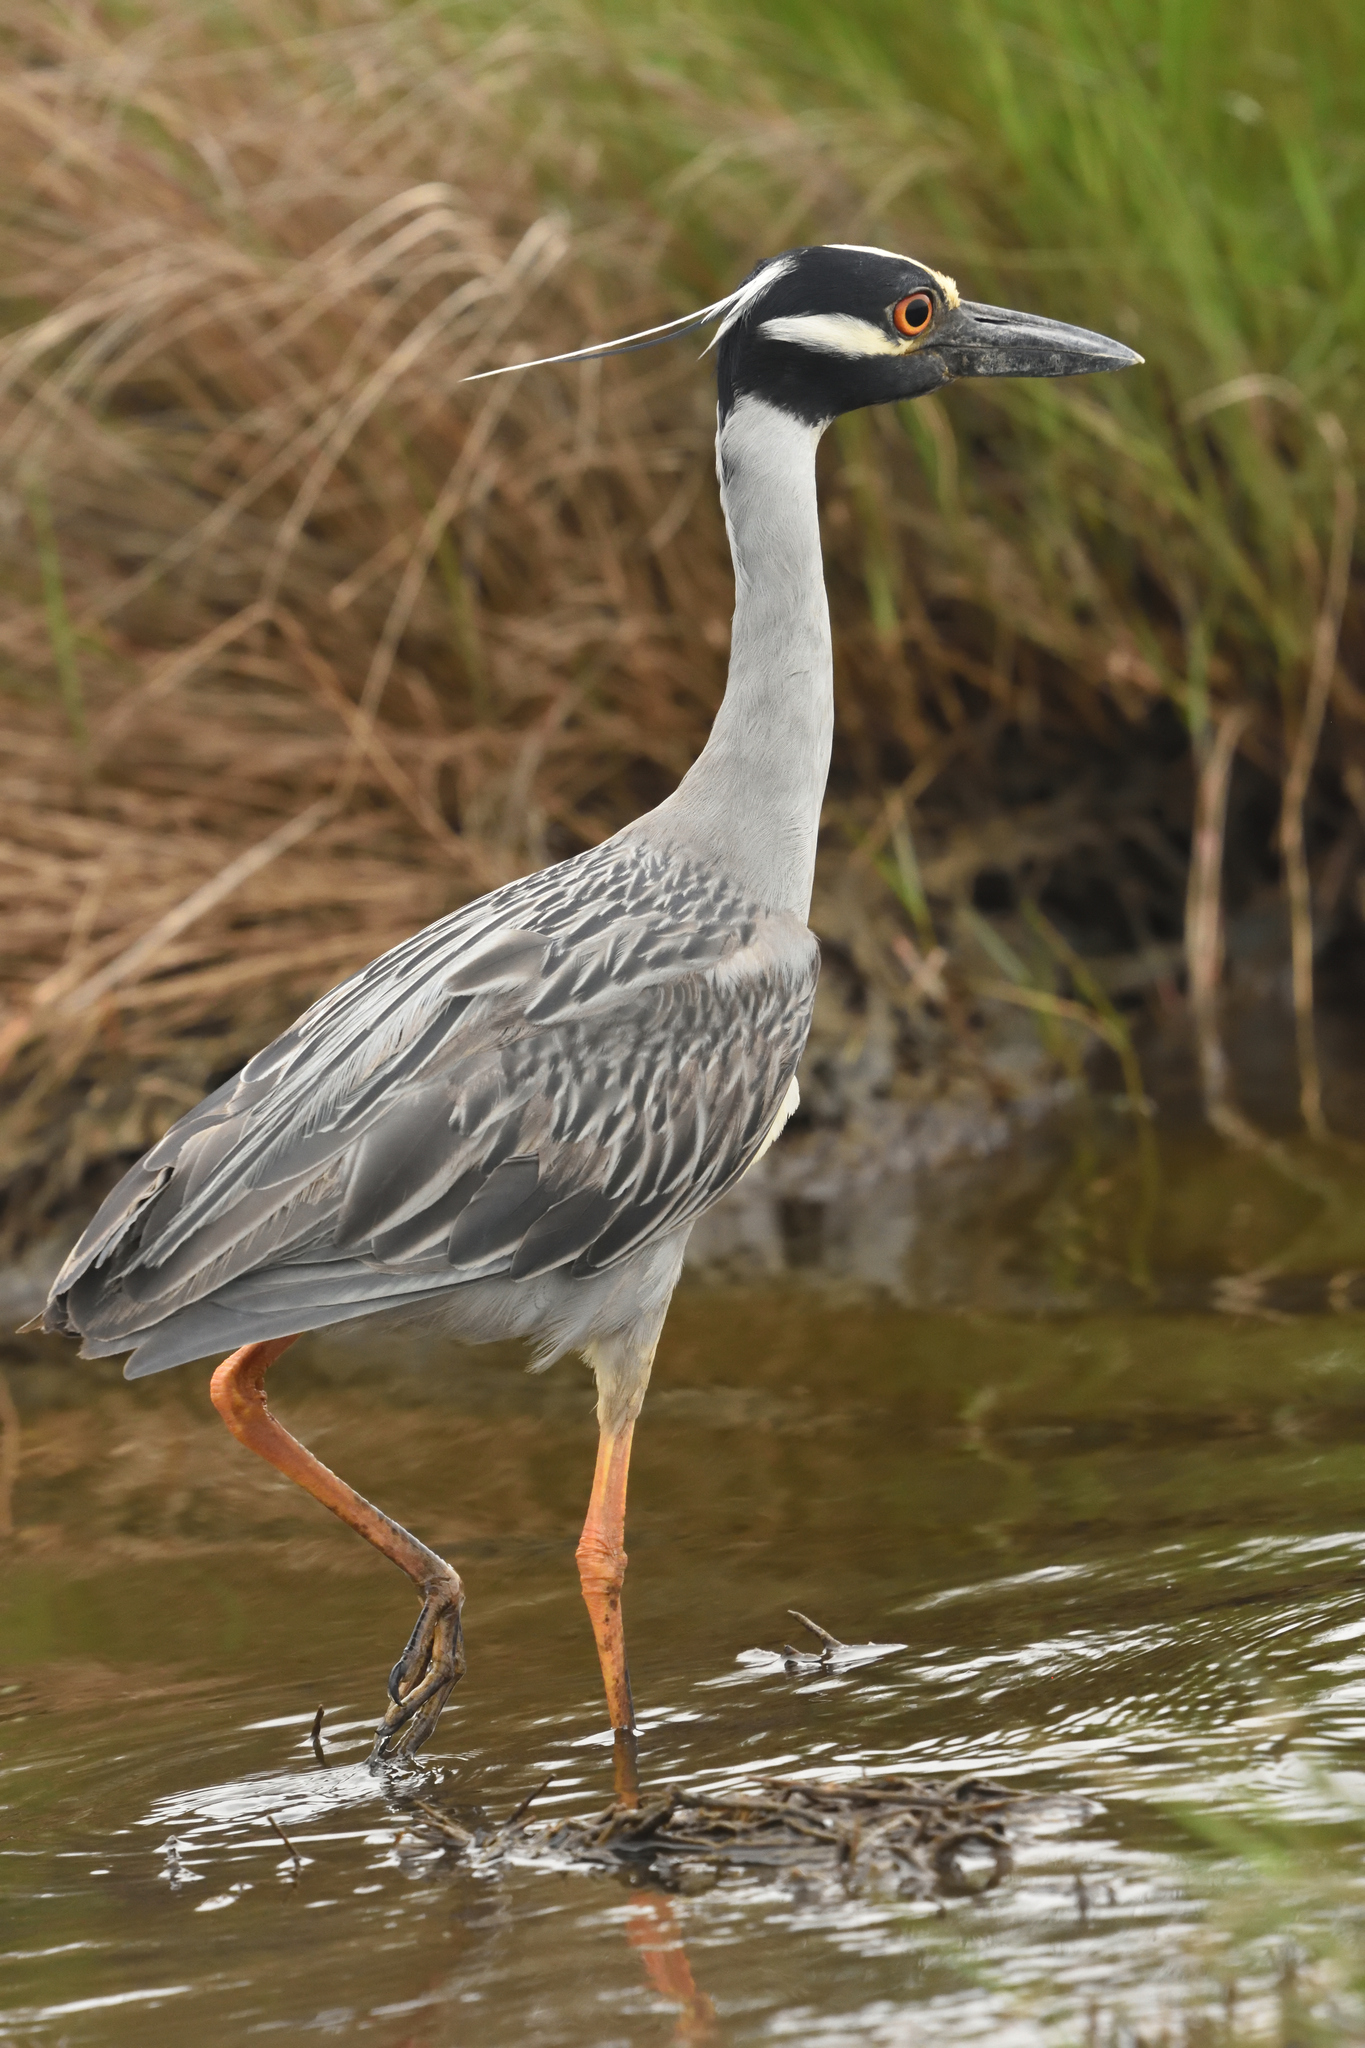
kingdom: Animalia
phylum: Chordata
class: Aves
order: Pelecaniformes
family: Ardeidae
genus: Nyctanassa
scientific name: Nyctanassa violacea
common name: Yellow-crowned night heron
